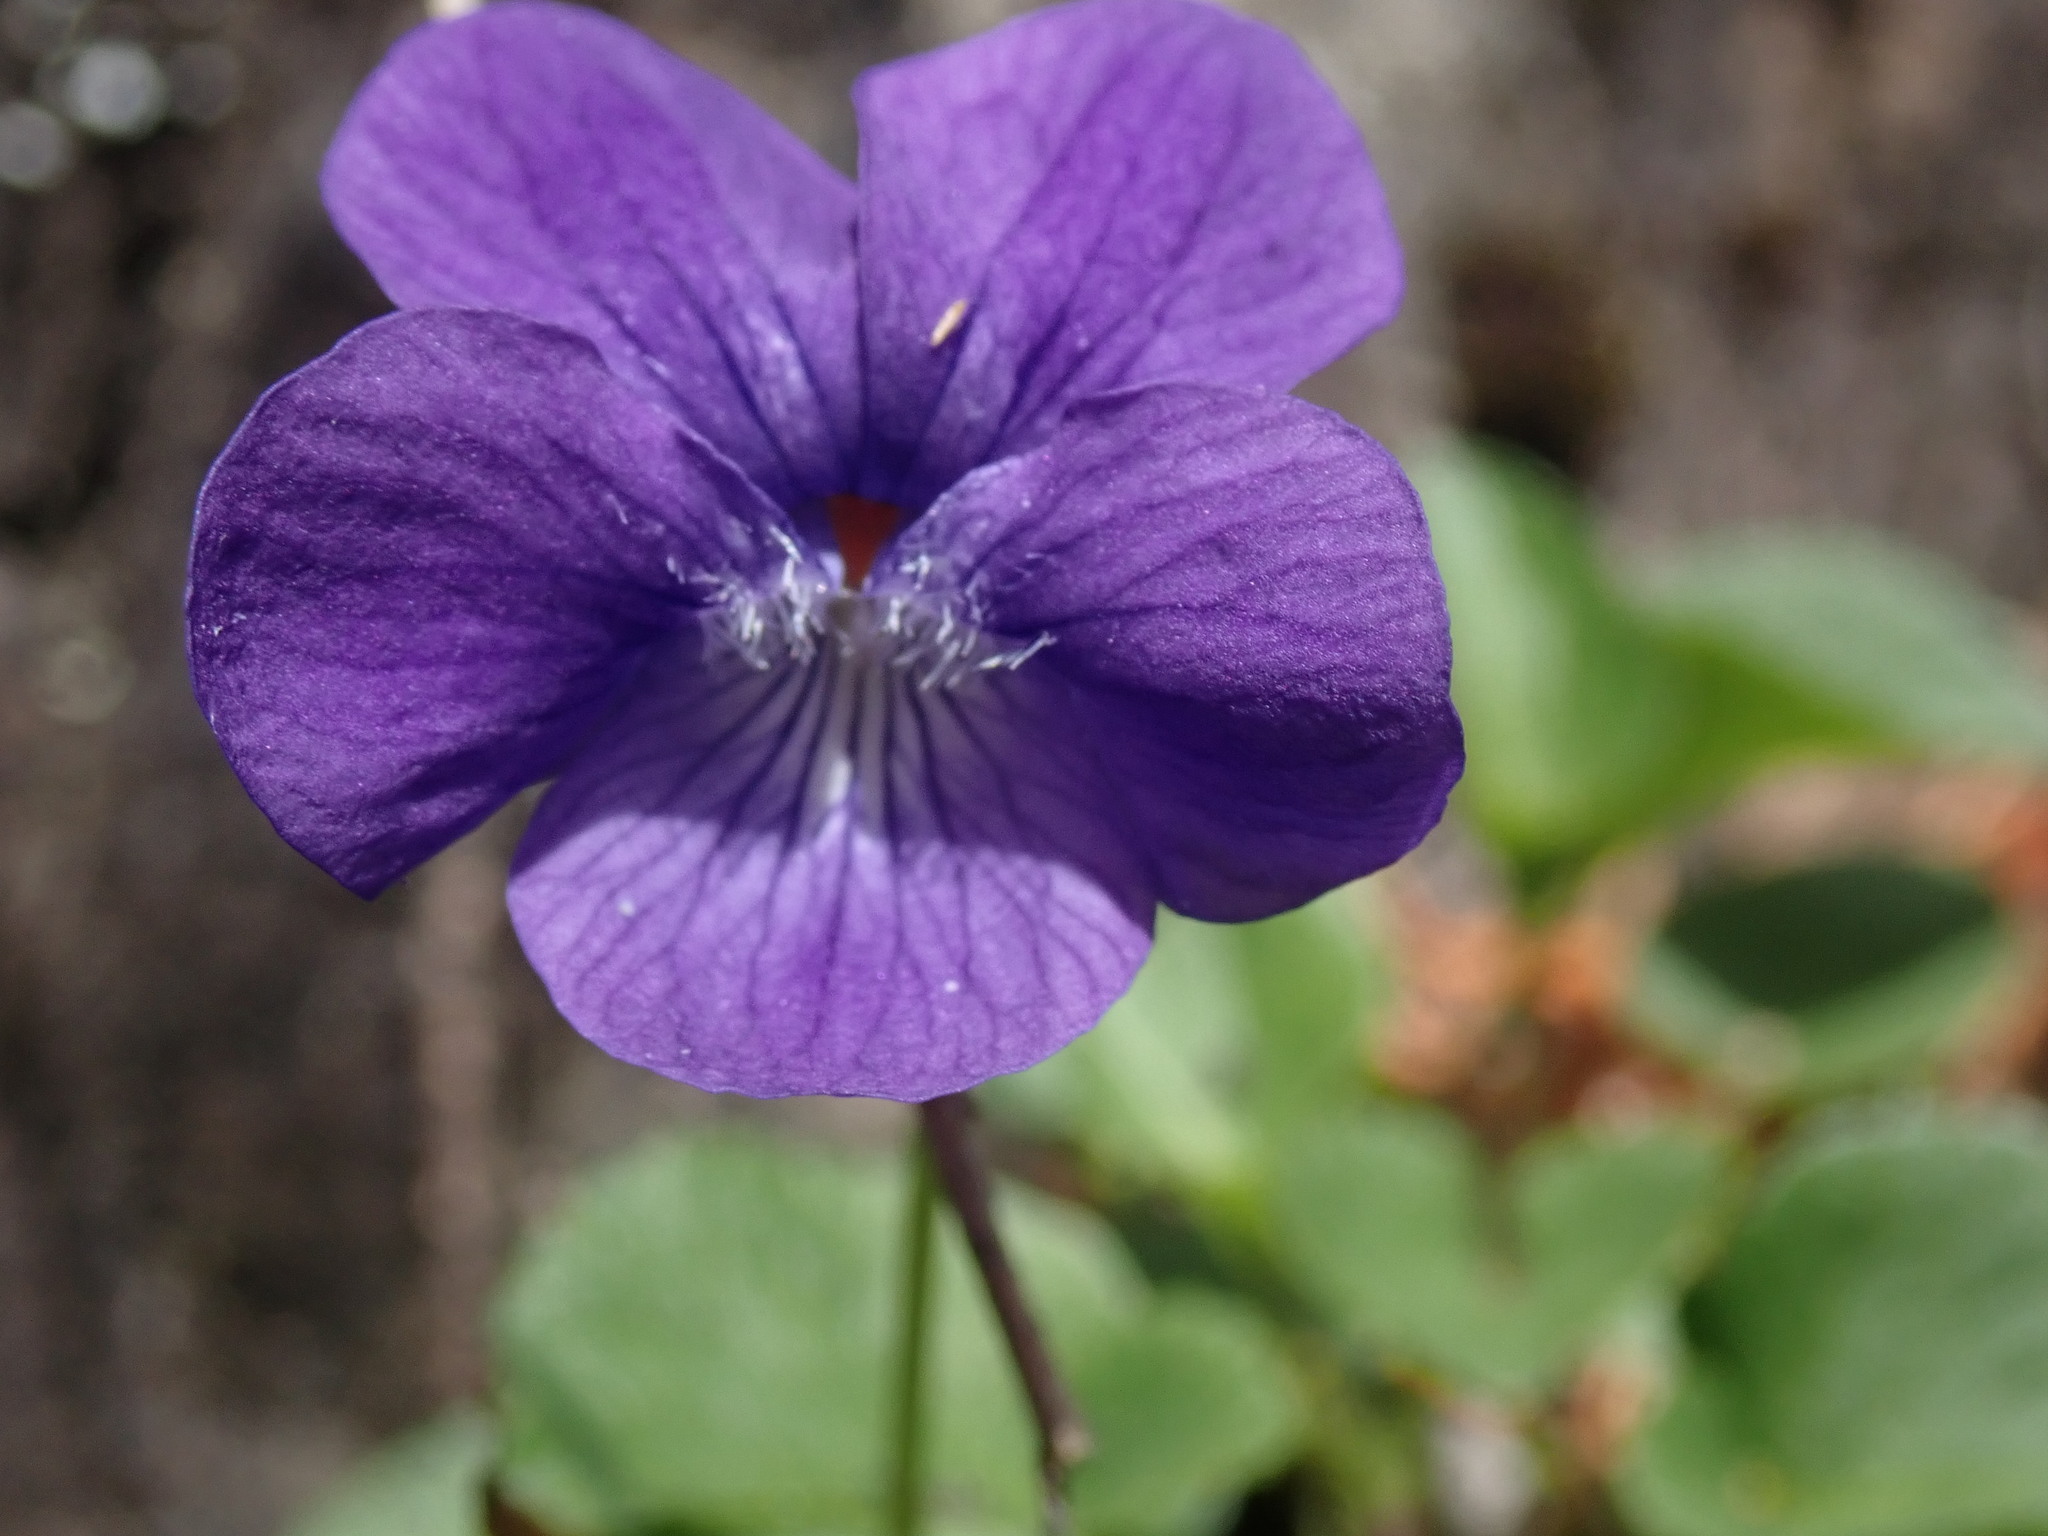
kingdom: Plantae
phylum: Tracheophyta
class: Magnoliopsida
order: Malpighiales
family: Violaceae
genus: Viola
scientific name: Viola adunca
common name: Sand violet
